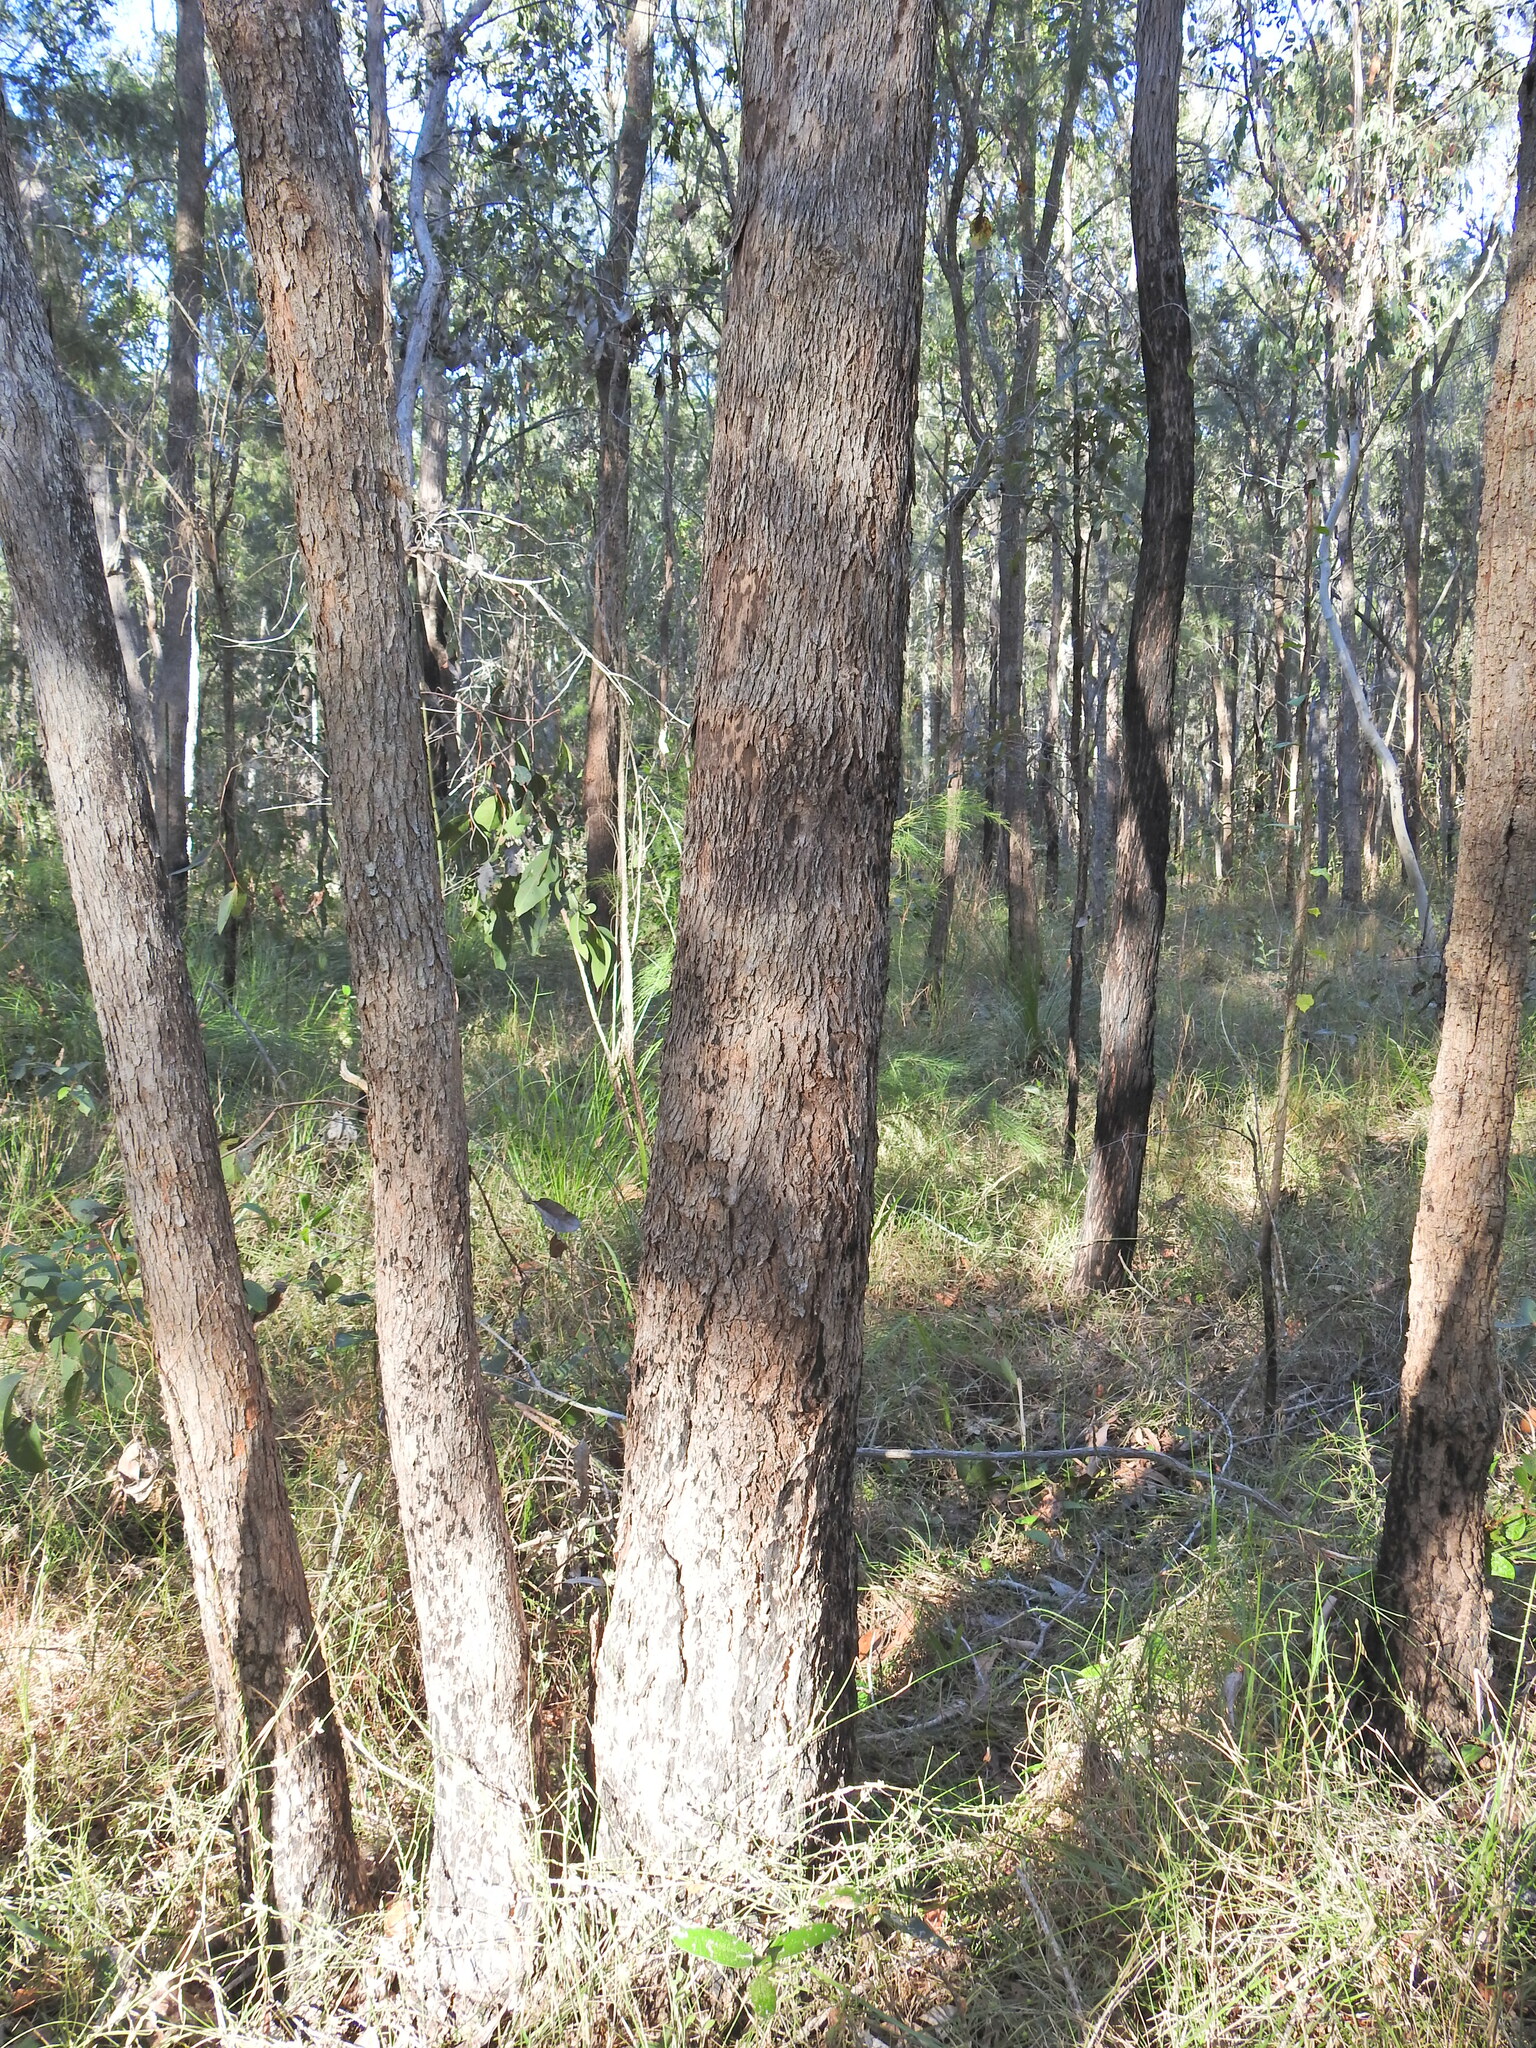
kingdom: Plantae
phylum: Tracheophyta
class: Magnoliopsida
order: Myrtales
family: Myrtaceae
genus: Lophostemon
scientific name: Lophostemon confertus
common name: Brisbane box
